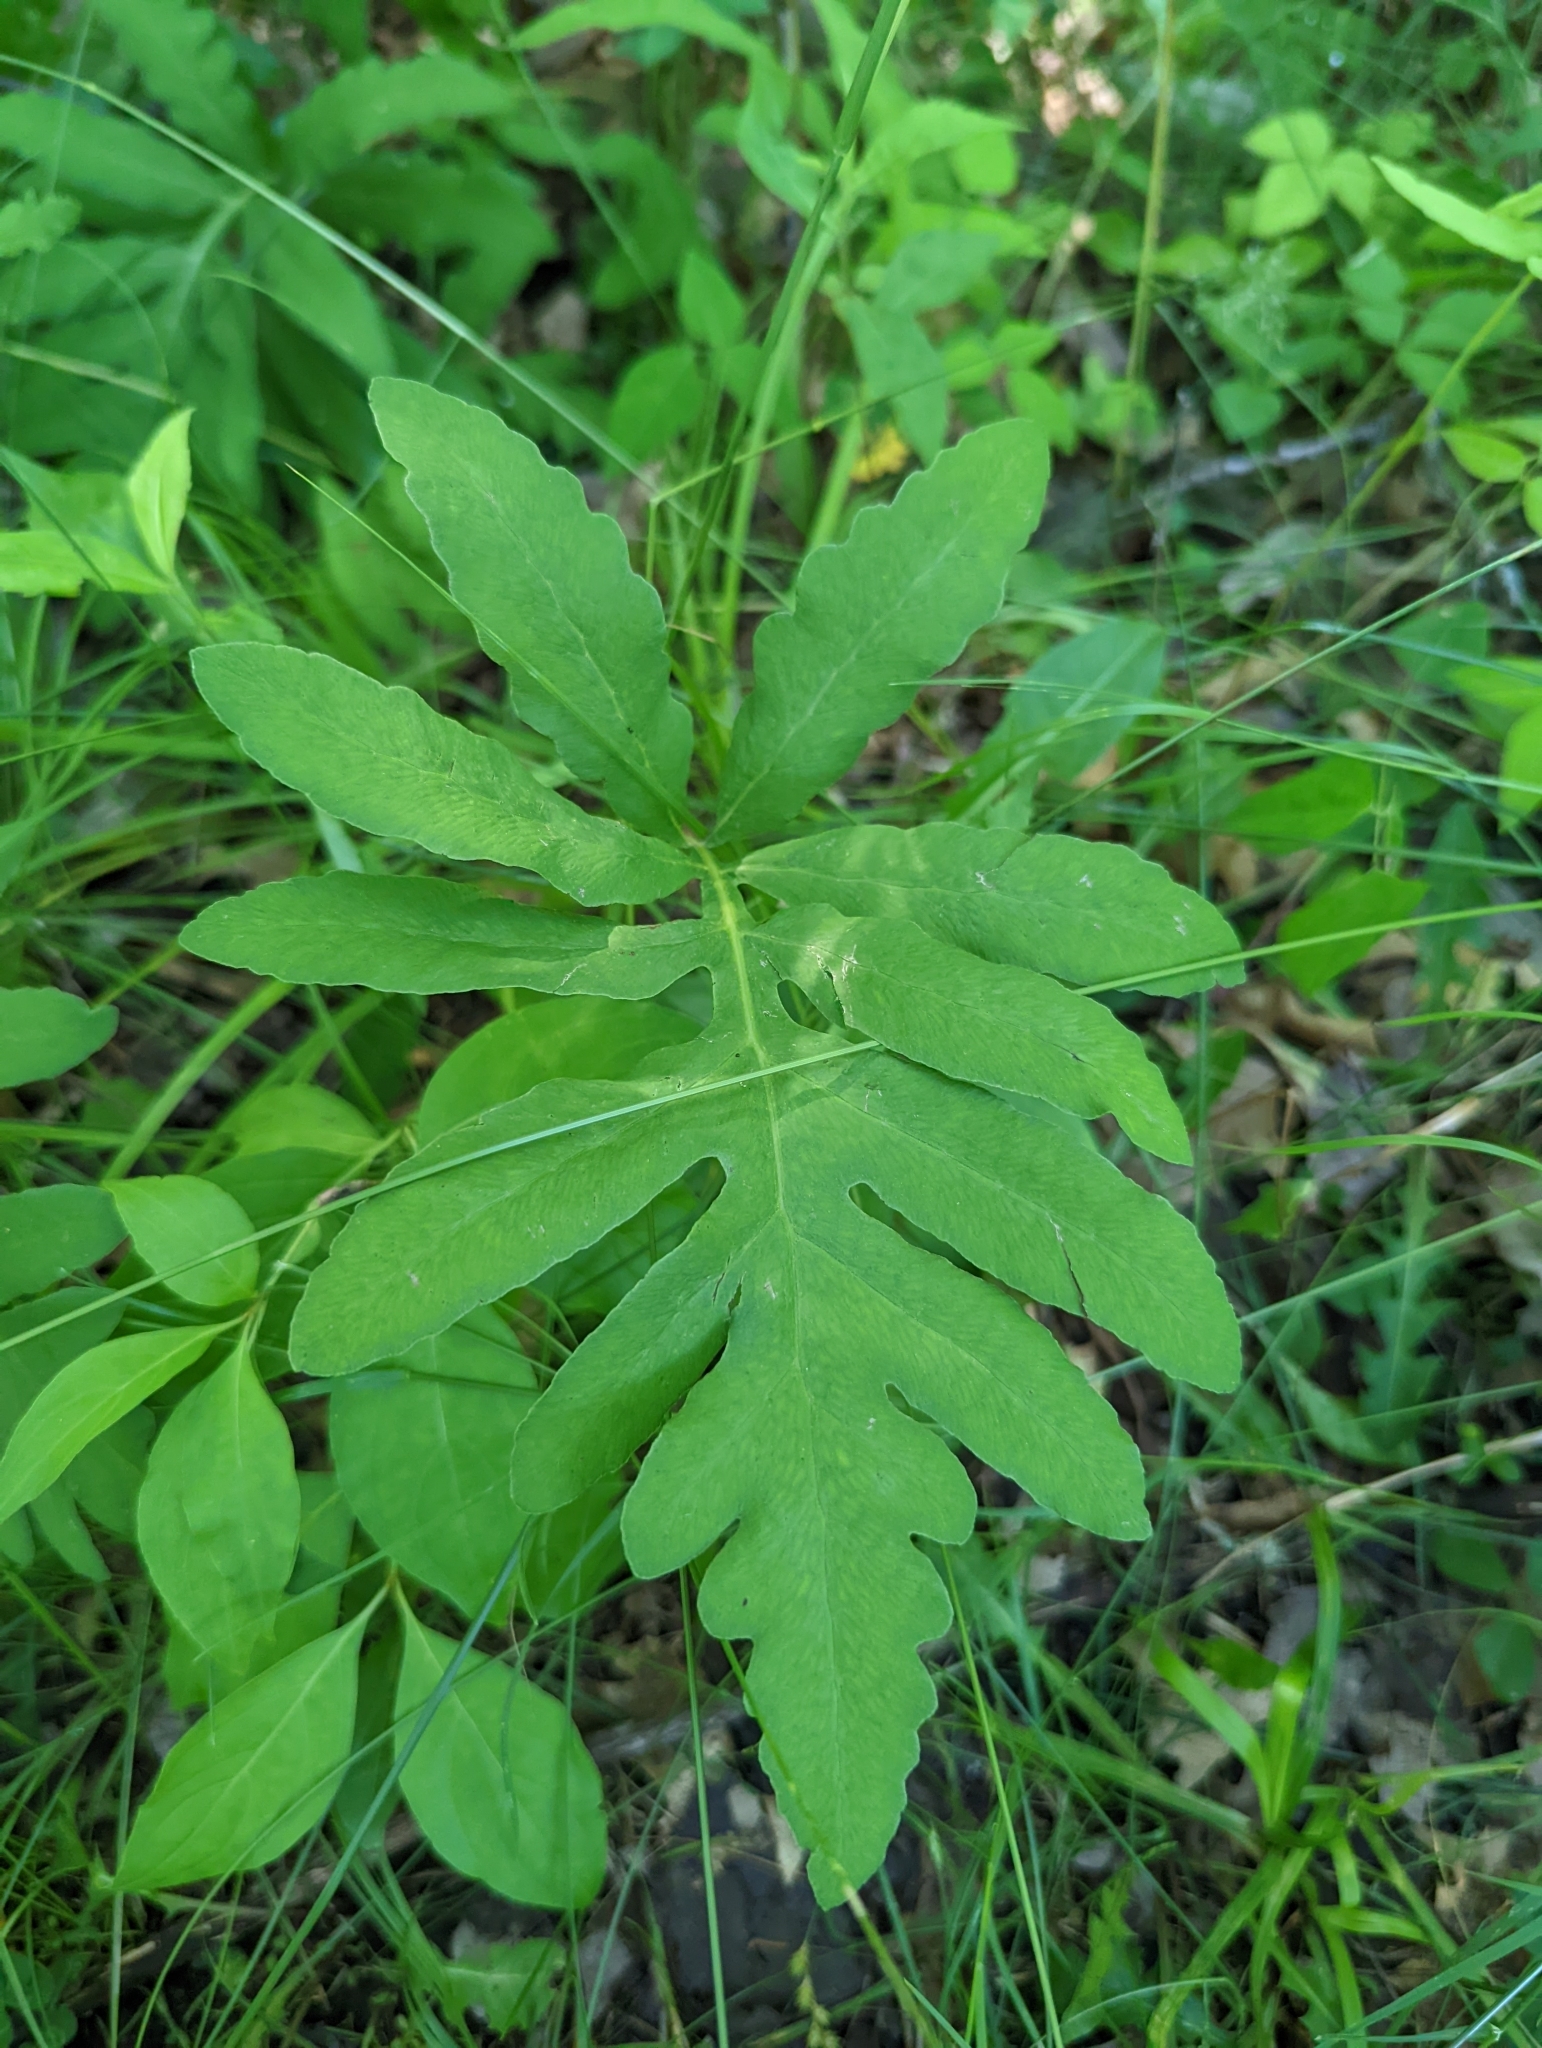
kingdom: Plantae
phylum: Tracheophyta
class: Polypodiopsida
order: Polypodiales
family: Onocleaceae
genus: Onoclea
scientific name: Onoclea sensibilis
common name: Sensitive fern
